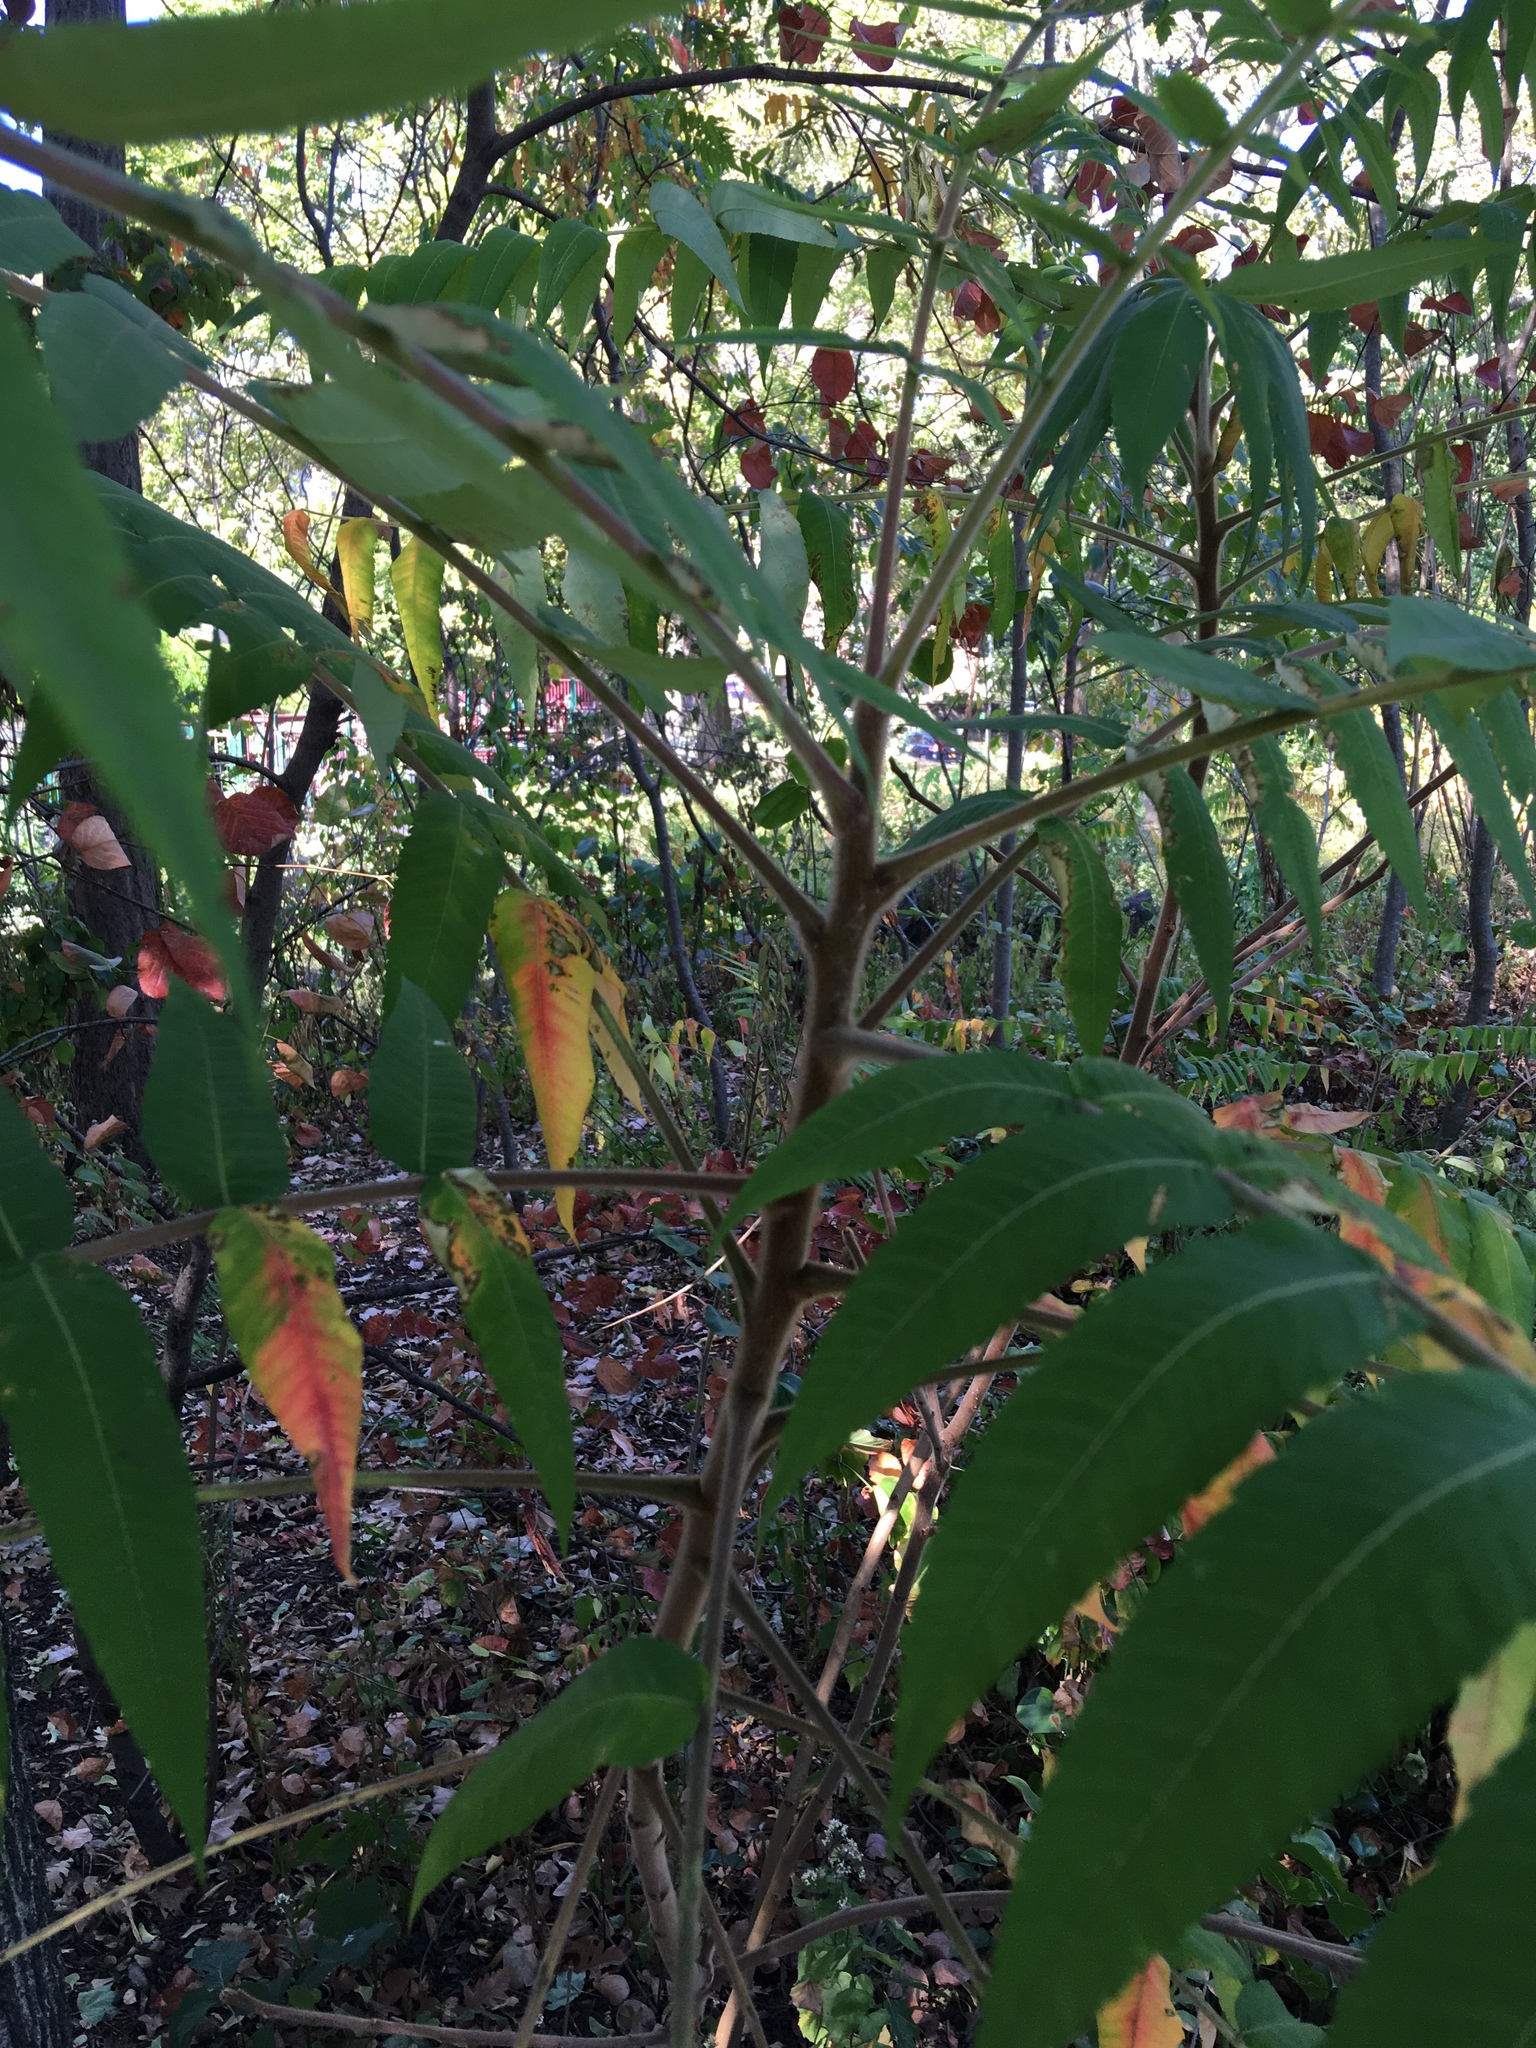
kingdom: Plantae
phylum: Tracheophyta
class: Magnoliopsida
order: Sapindales
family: Anacardiaceae
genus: Rhus
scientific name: Rhus typhina
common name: Staghorn sumac
